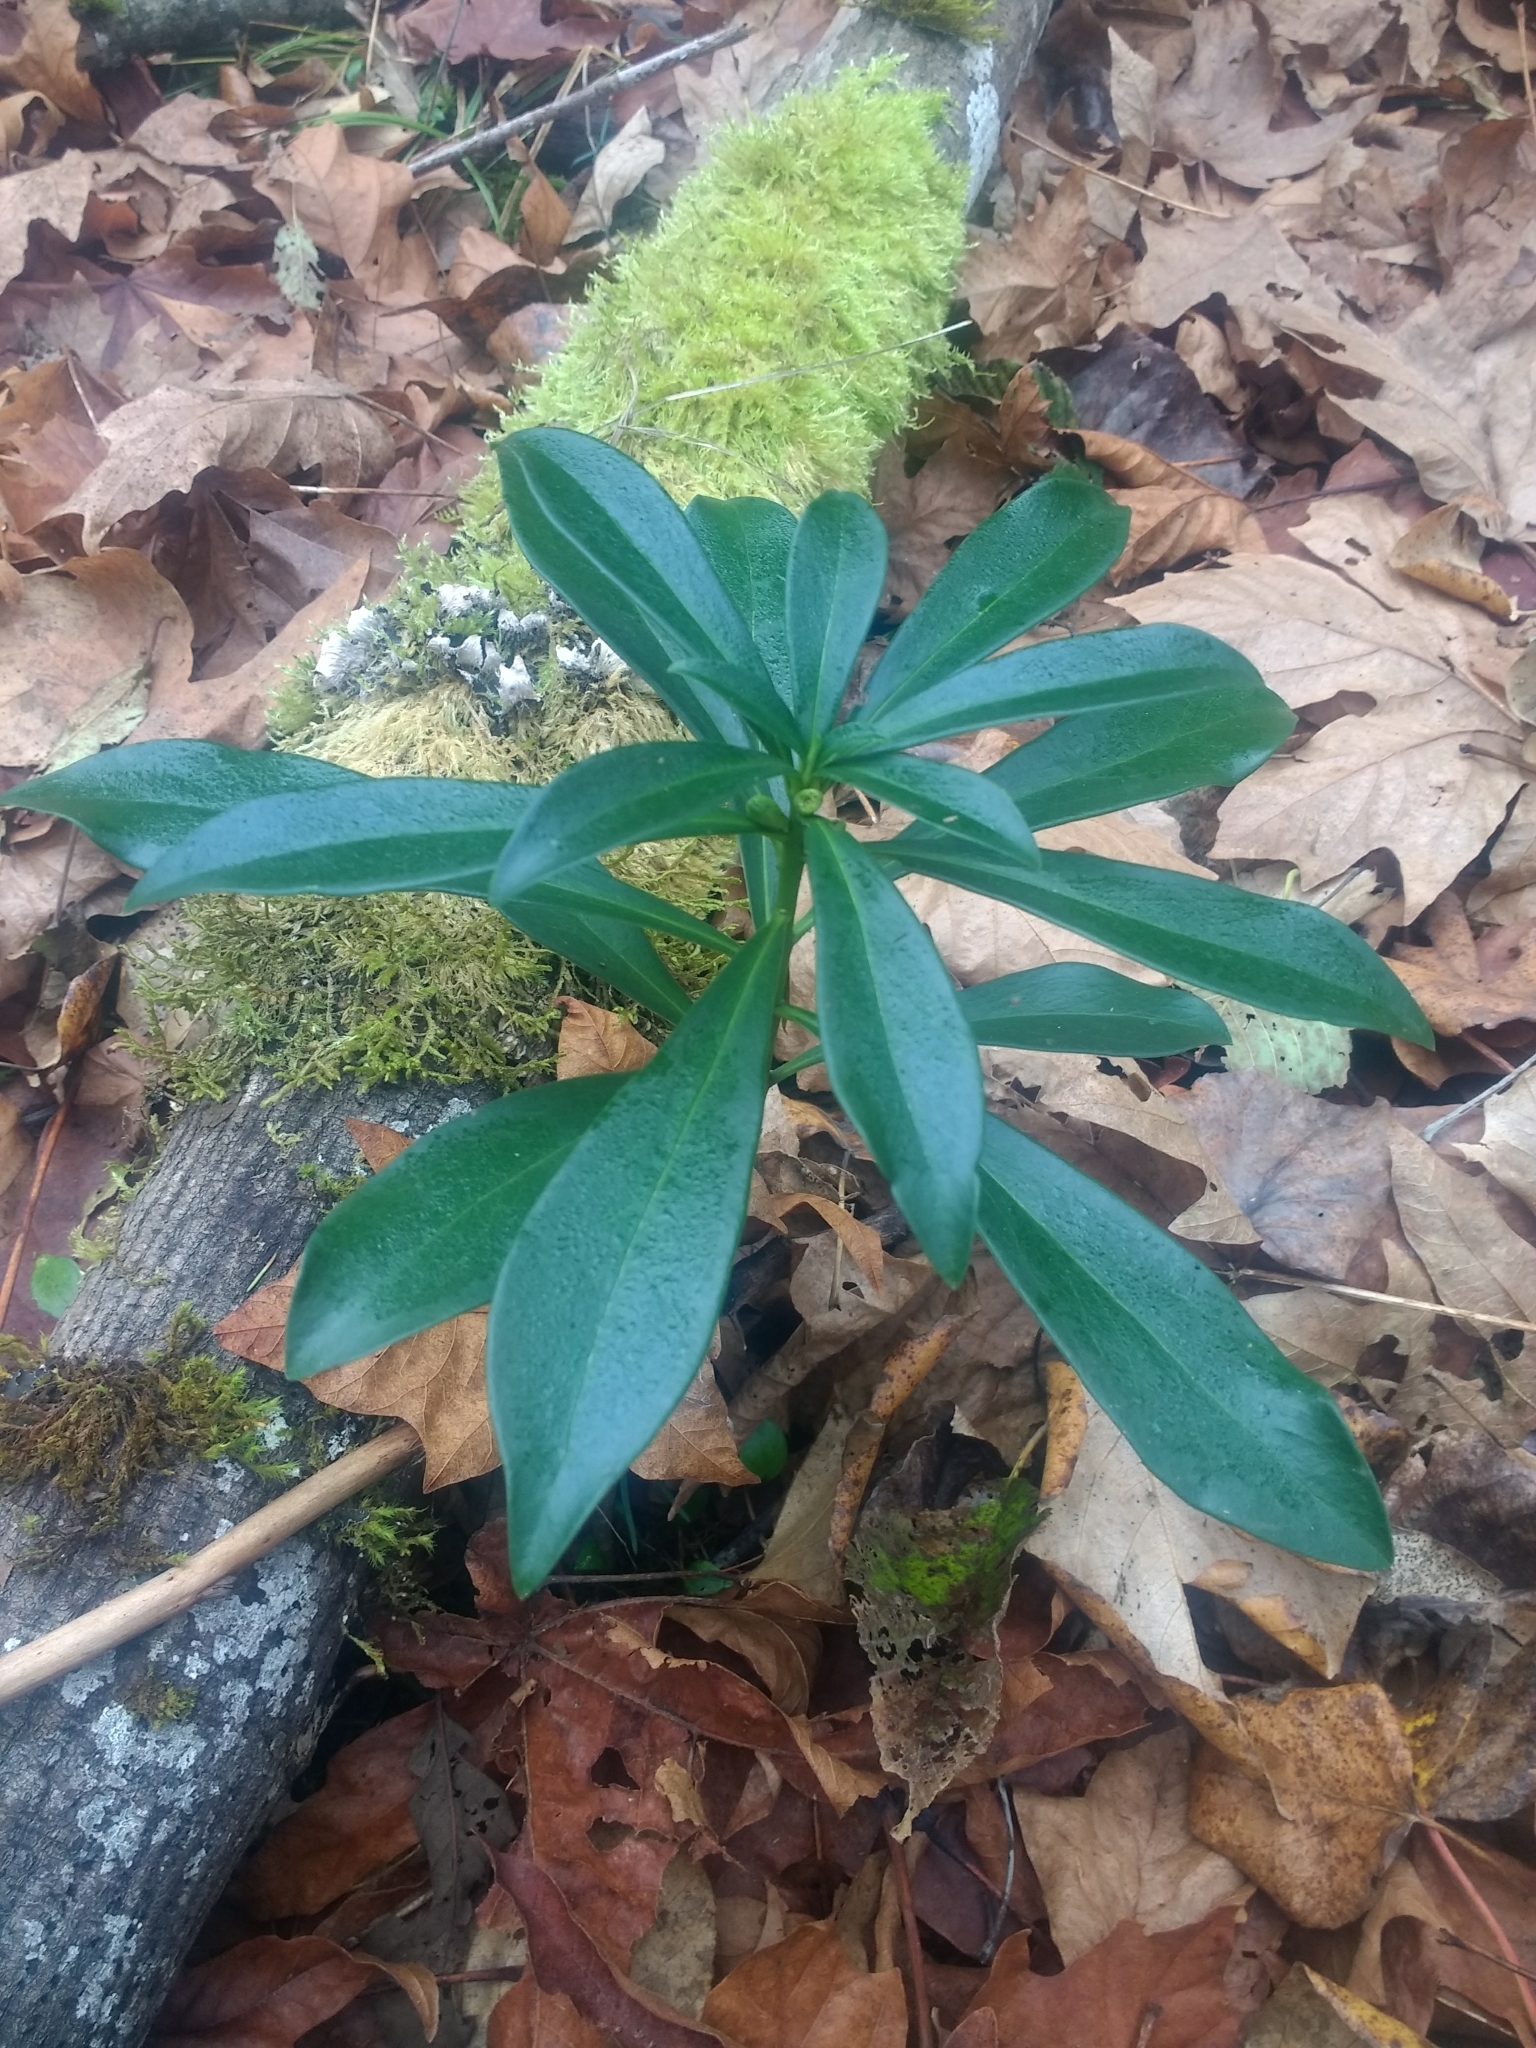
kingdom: Plantae
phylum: Tracheophyta
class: Magnoliopsida
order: Malvales
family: Thymelaeaceae
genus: Daphne
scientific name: Daphne laureola
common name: Spurge-laurel
